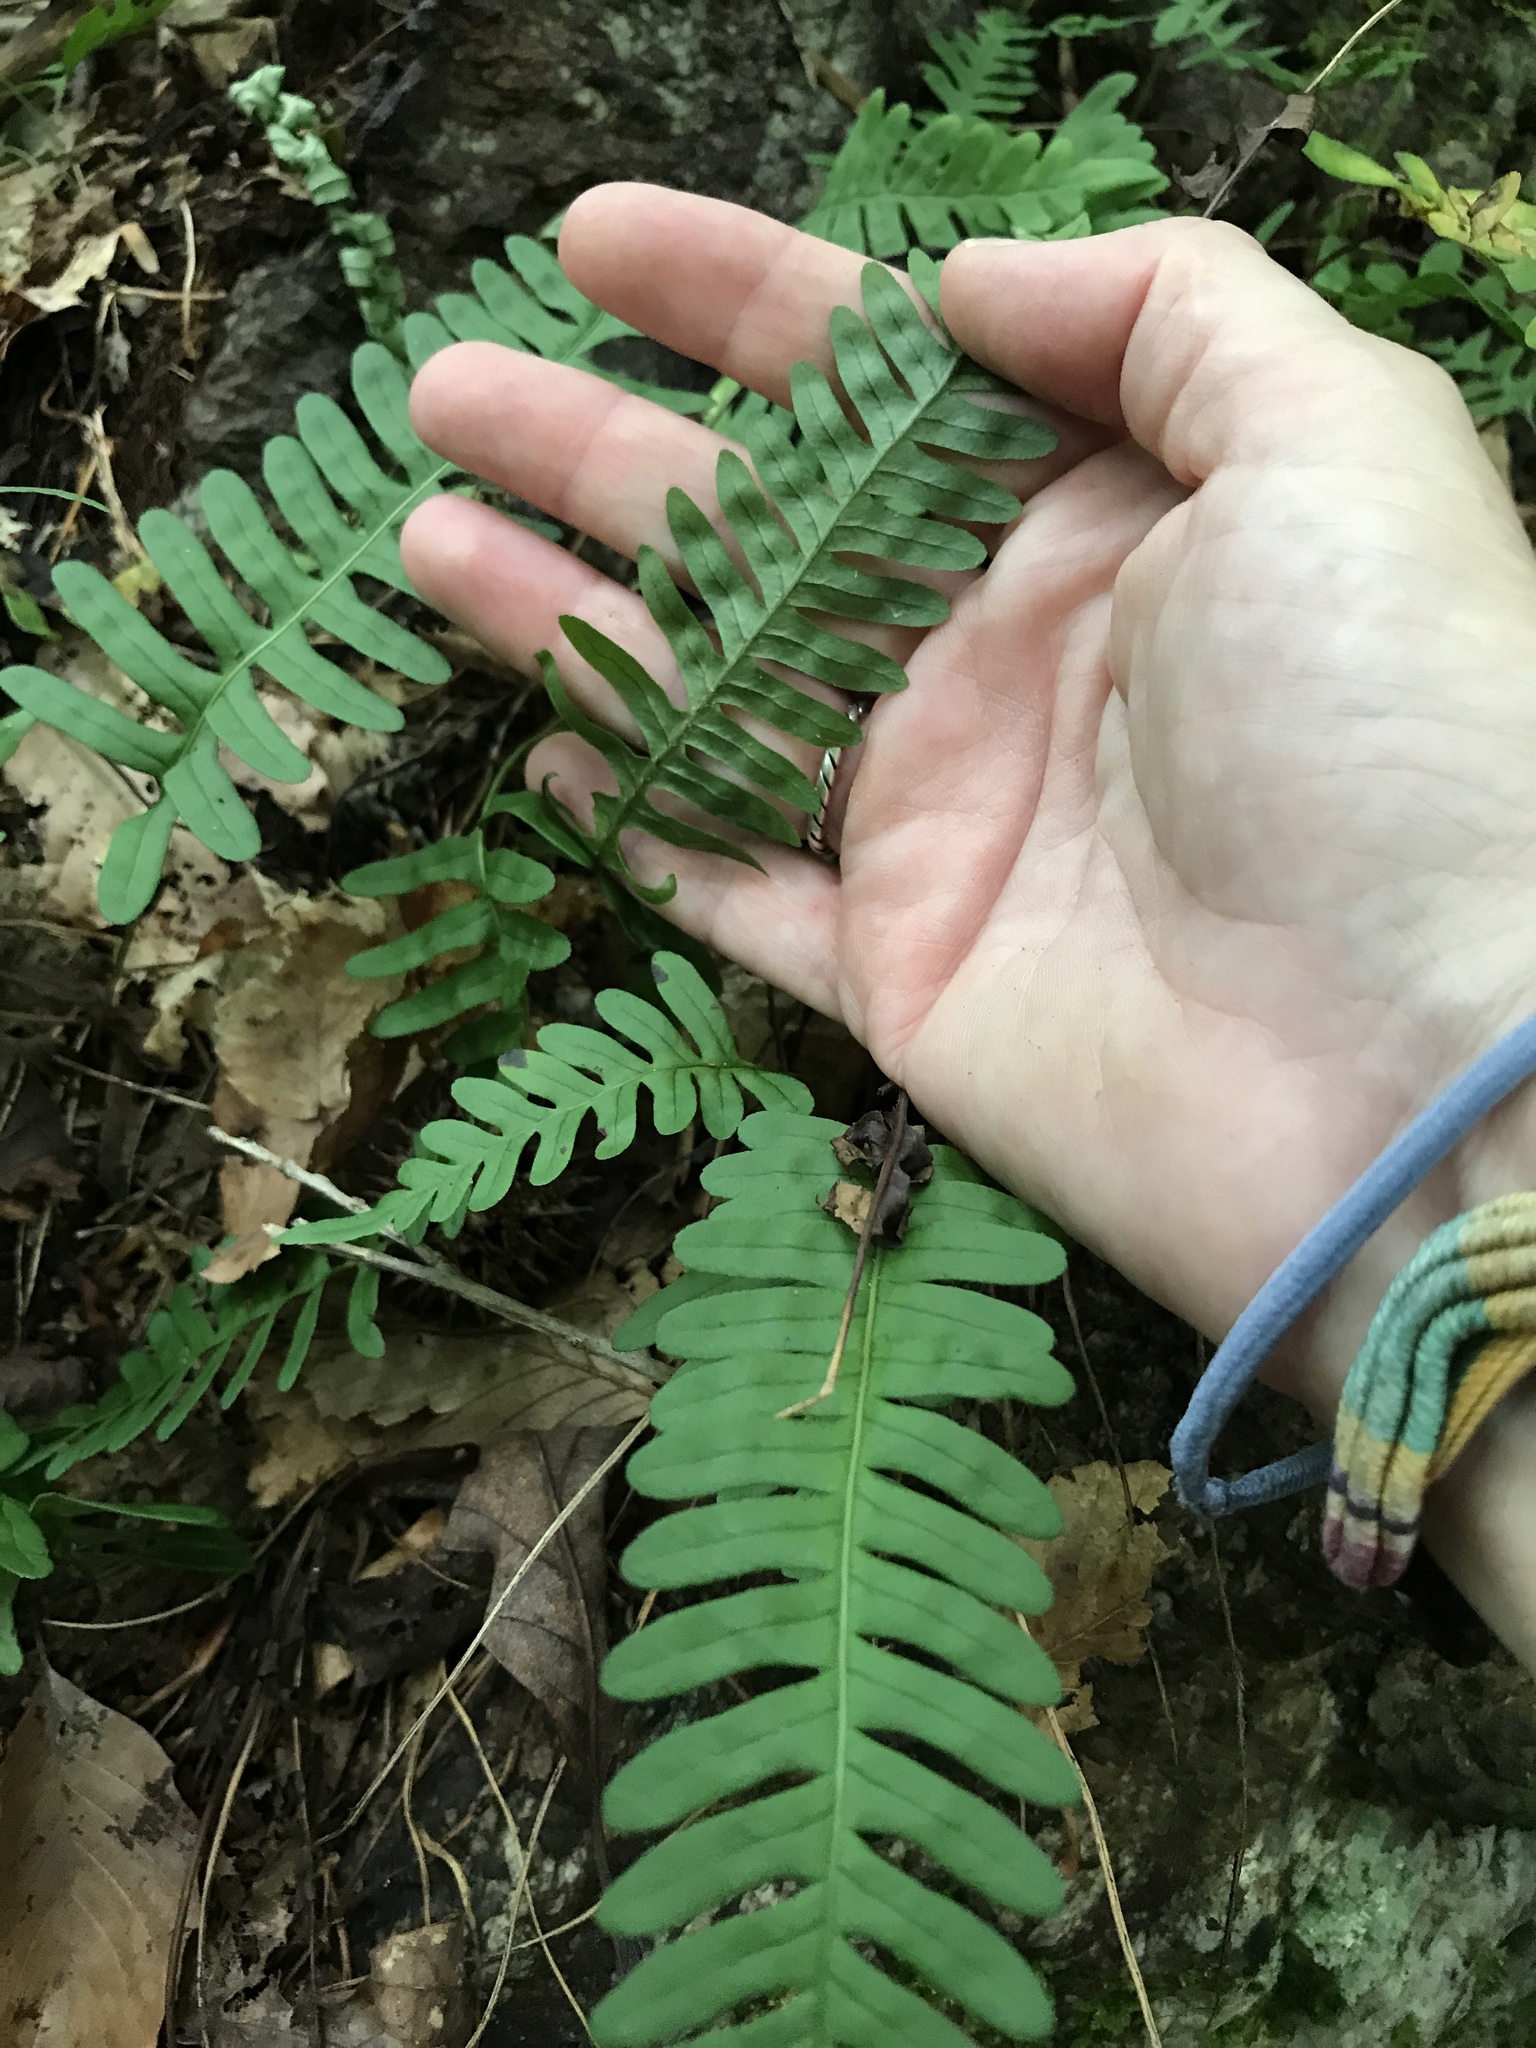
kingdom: Plantae
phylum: Tracheophyta
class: Polypodiopsida
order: Polypodiales
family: Polypodiaceae
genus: Polypodium
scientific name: Polypodium virginianum
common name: American wall fern
